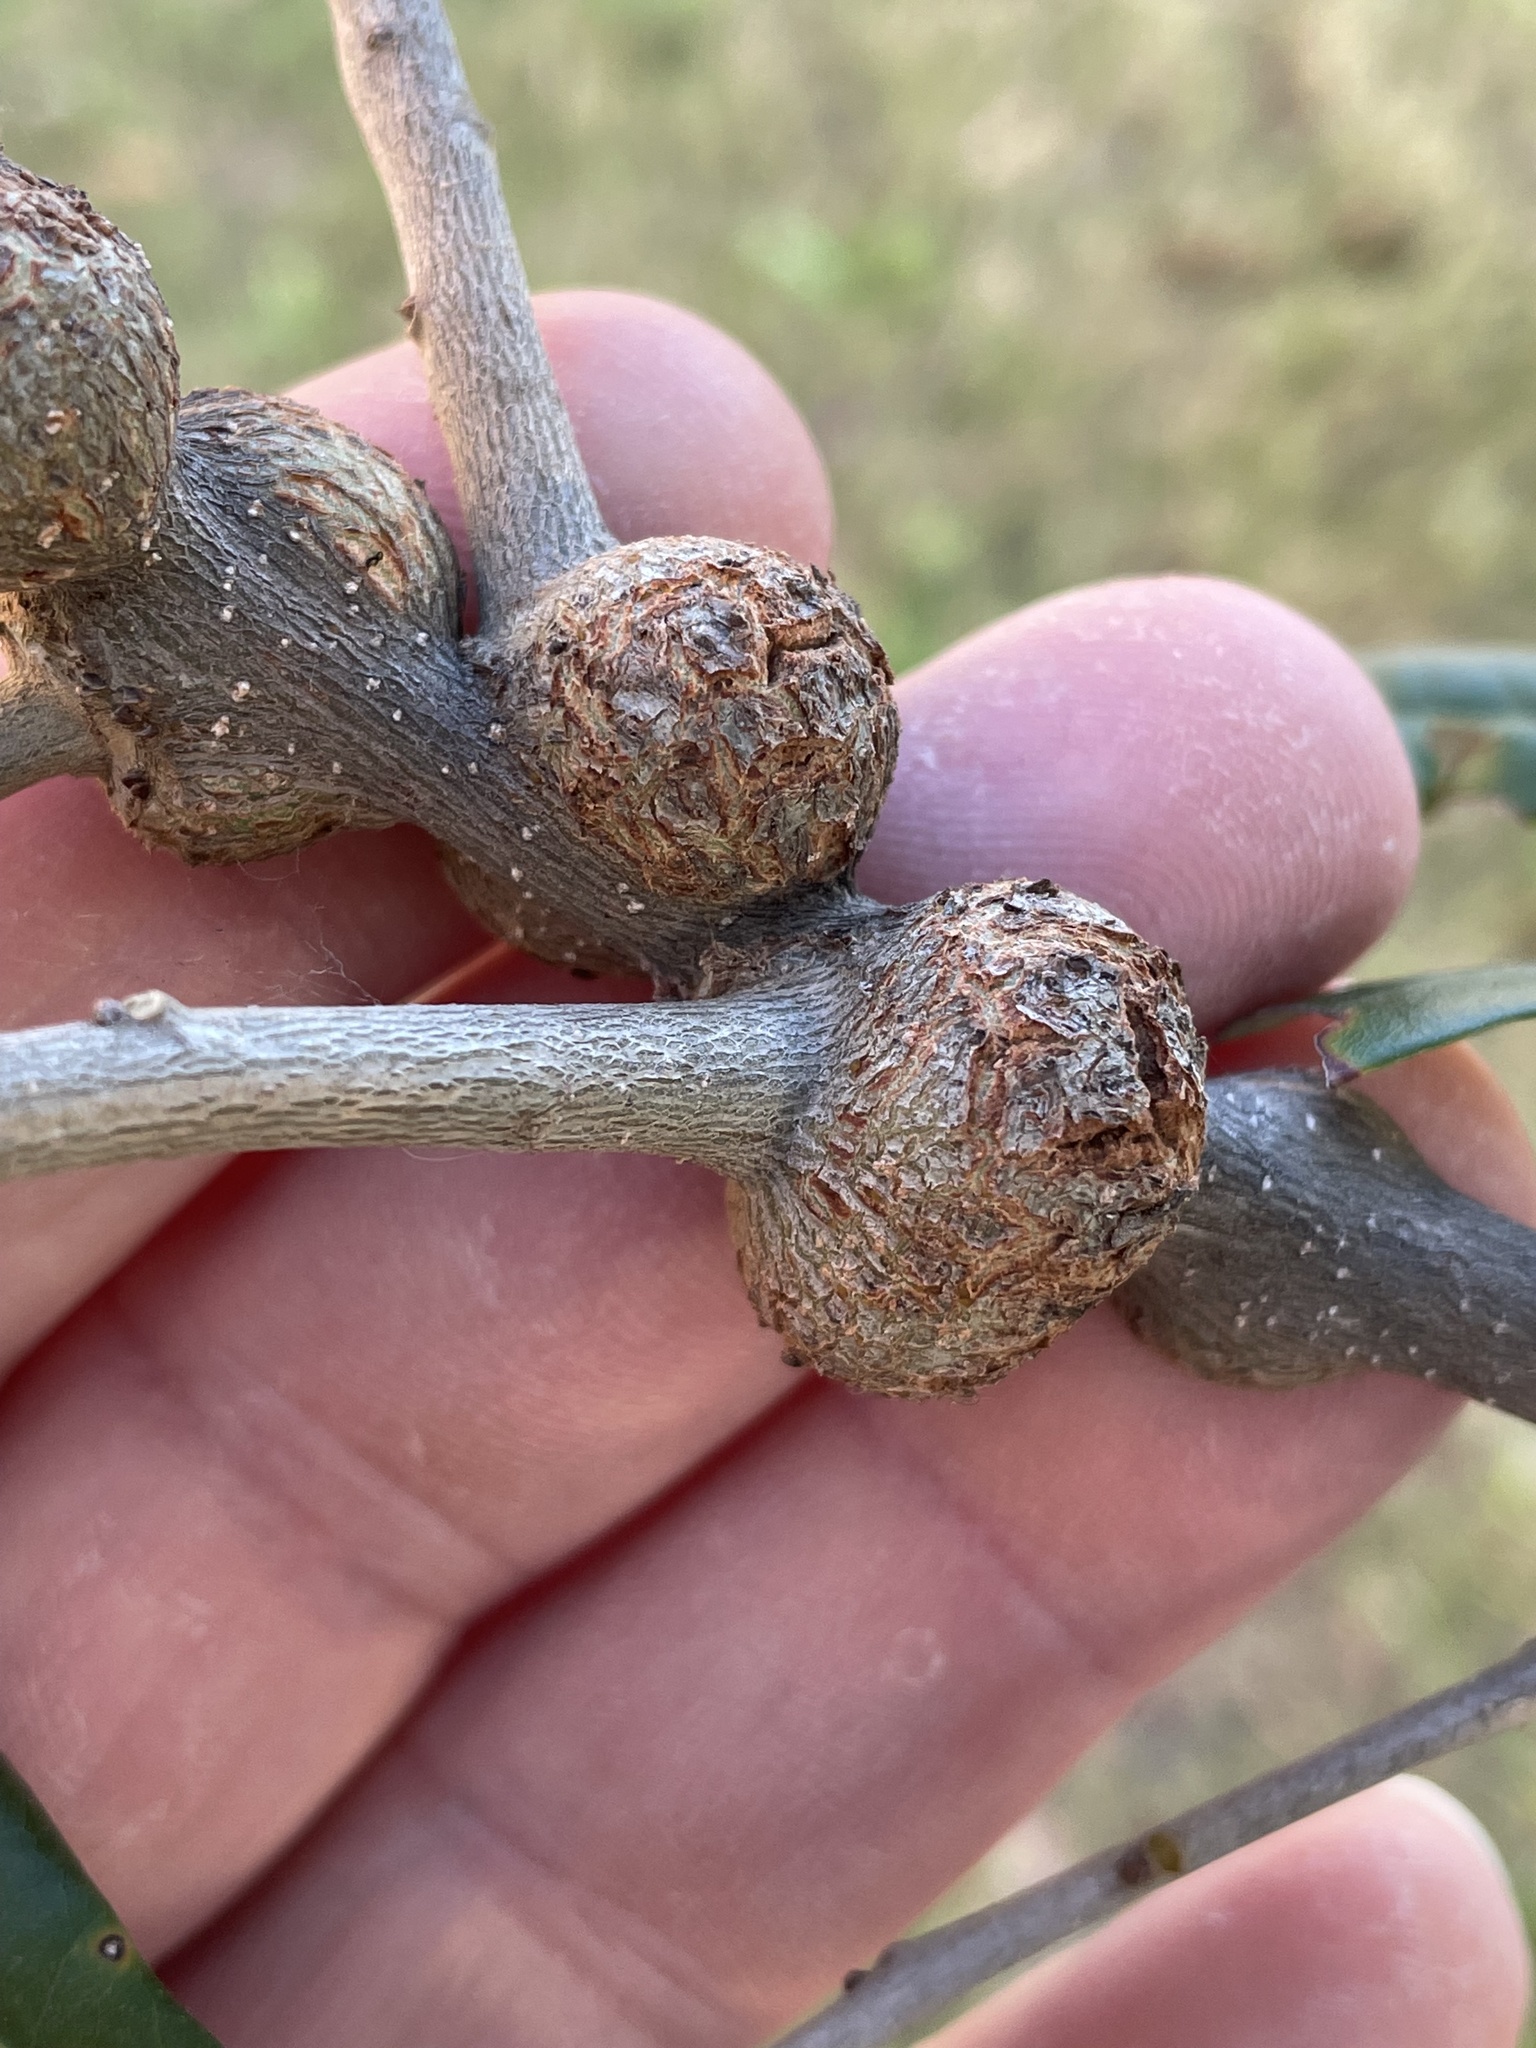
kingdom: Animalia
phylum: Arthropoda
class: Insecta
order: Hymenoptera
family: Cynipidae
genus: Callirhytis
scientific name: Callirhytis
